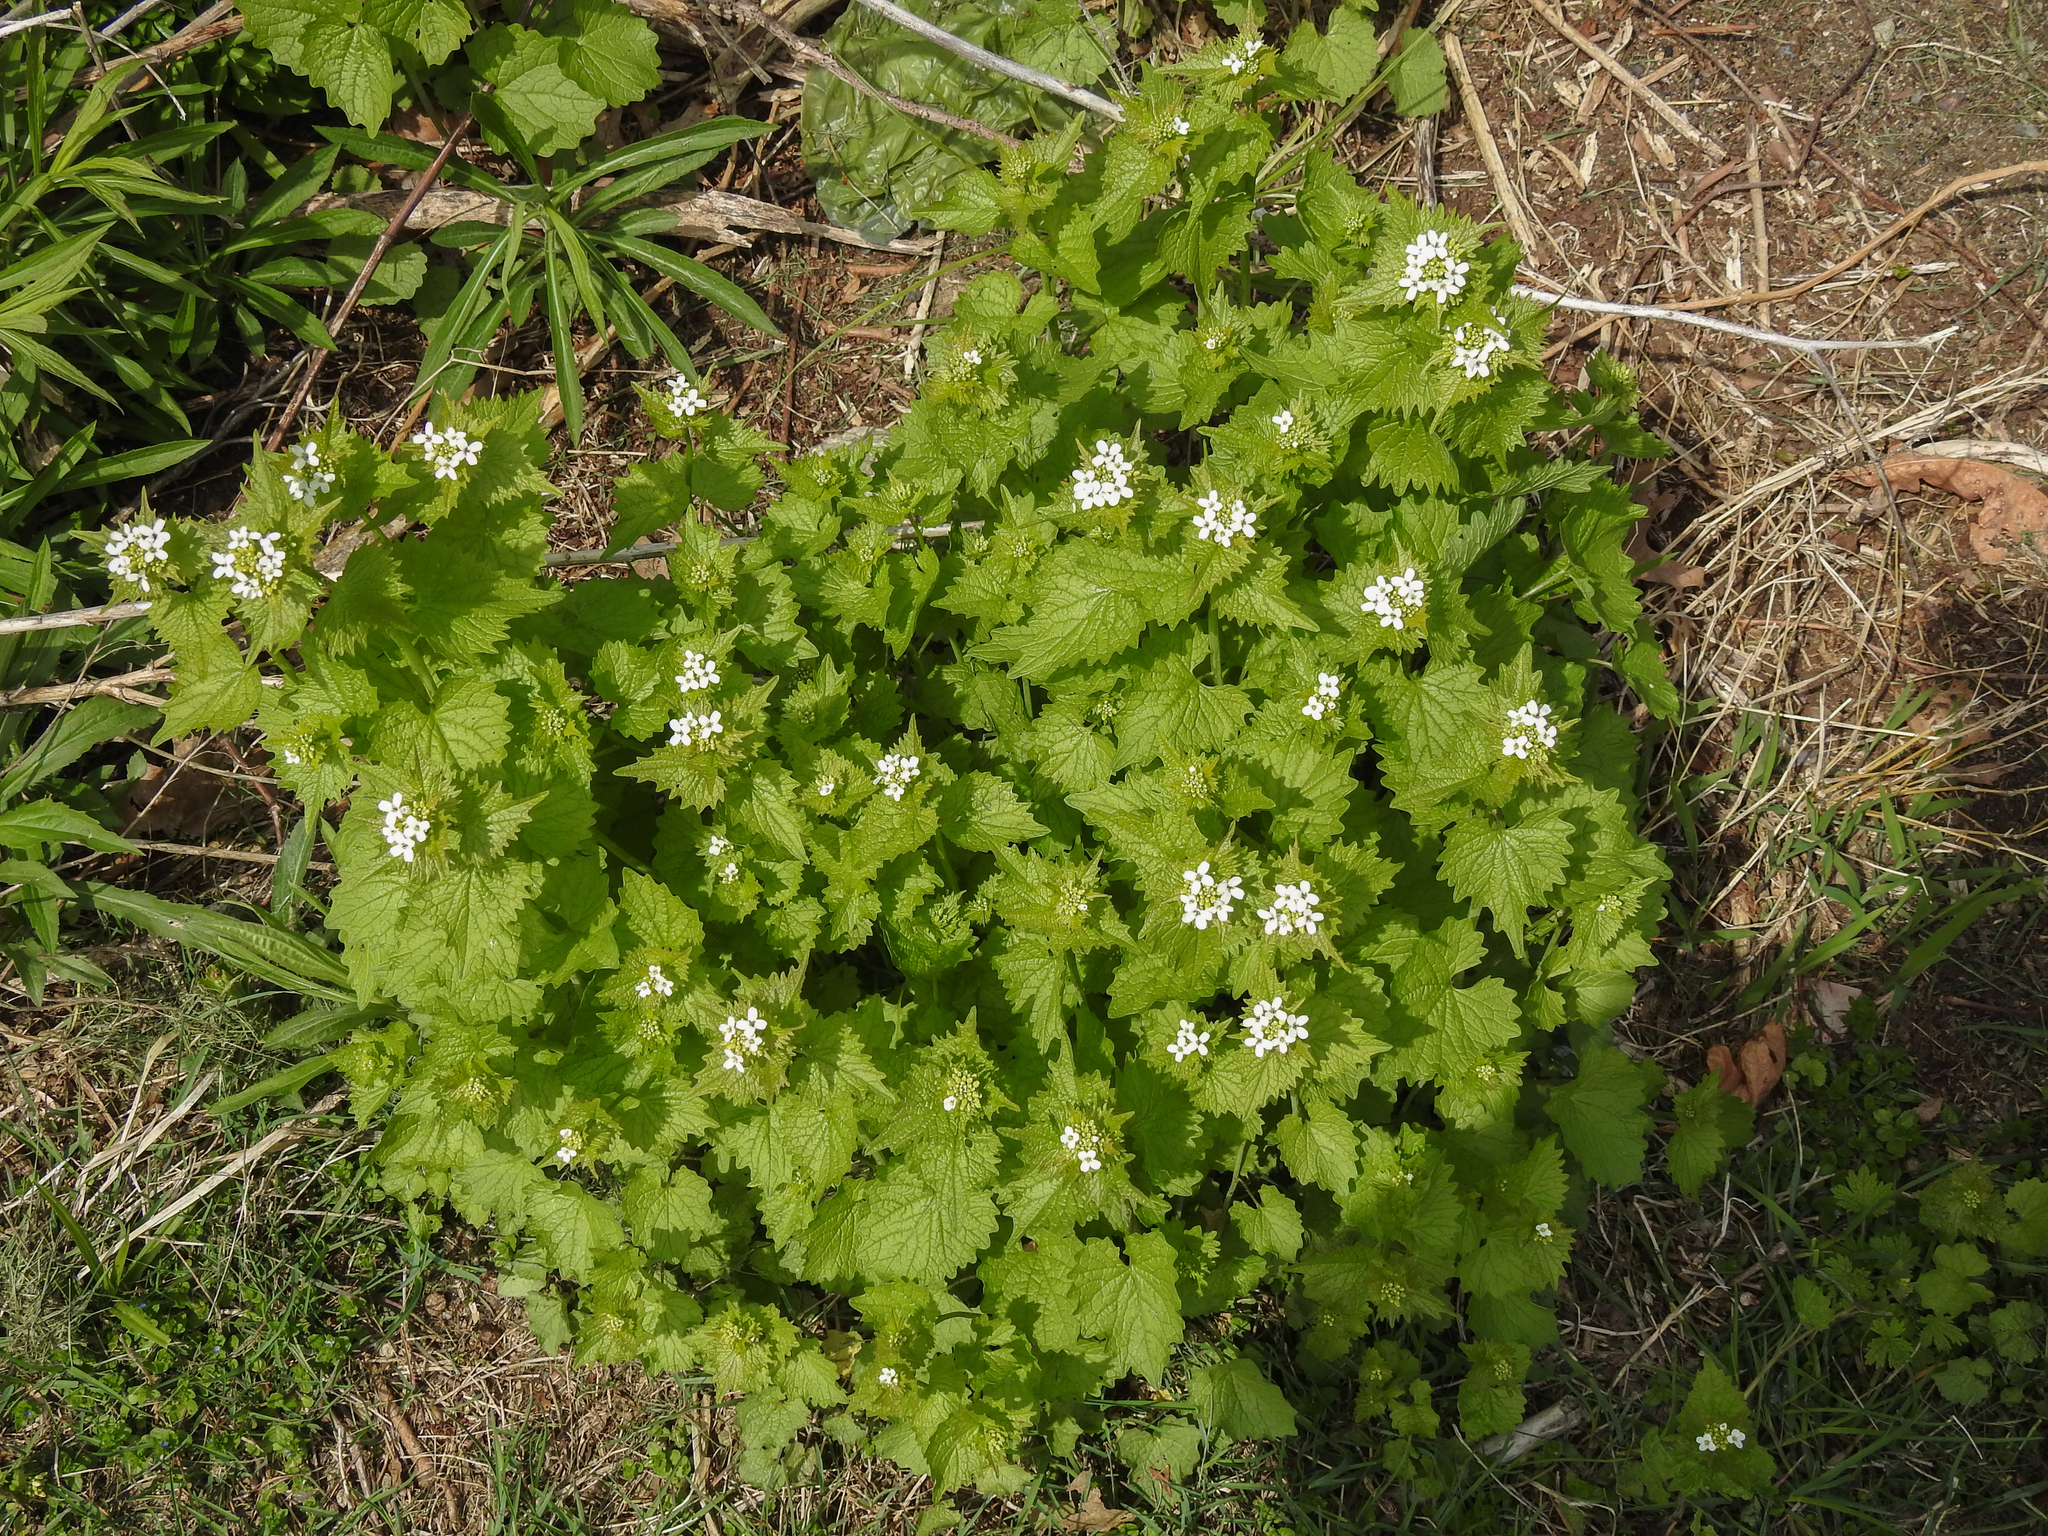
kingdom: Plantae
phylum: Tracheophyta
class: Magnoliopsida
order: Brassicales
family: Brassicaceae
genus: Alliaria
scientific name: Alliaria petiolata
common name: Garlic mustard
